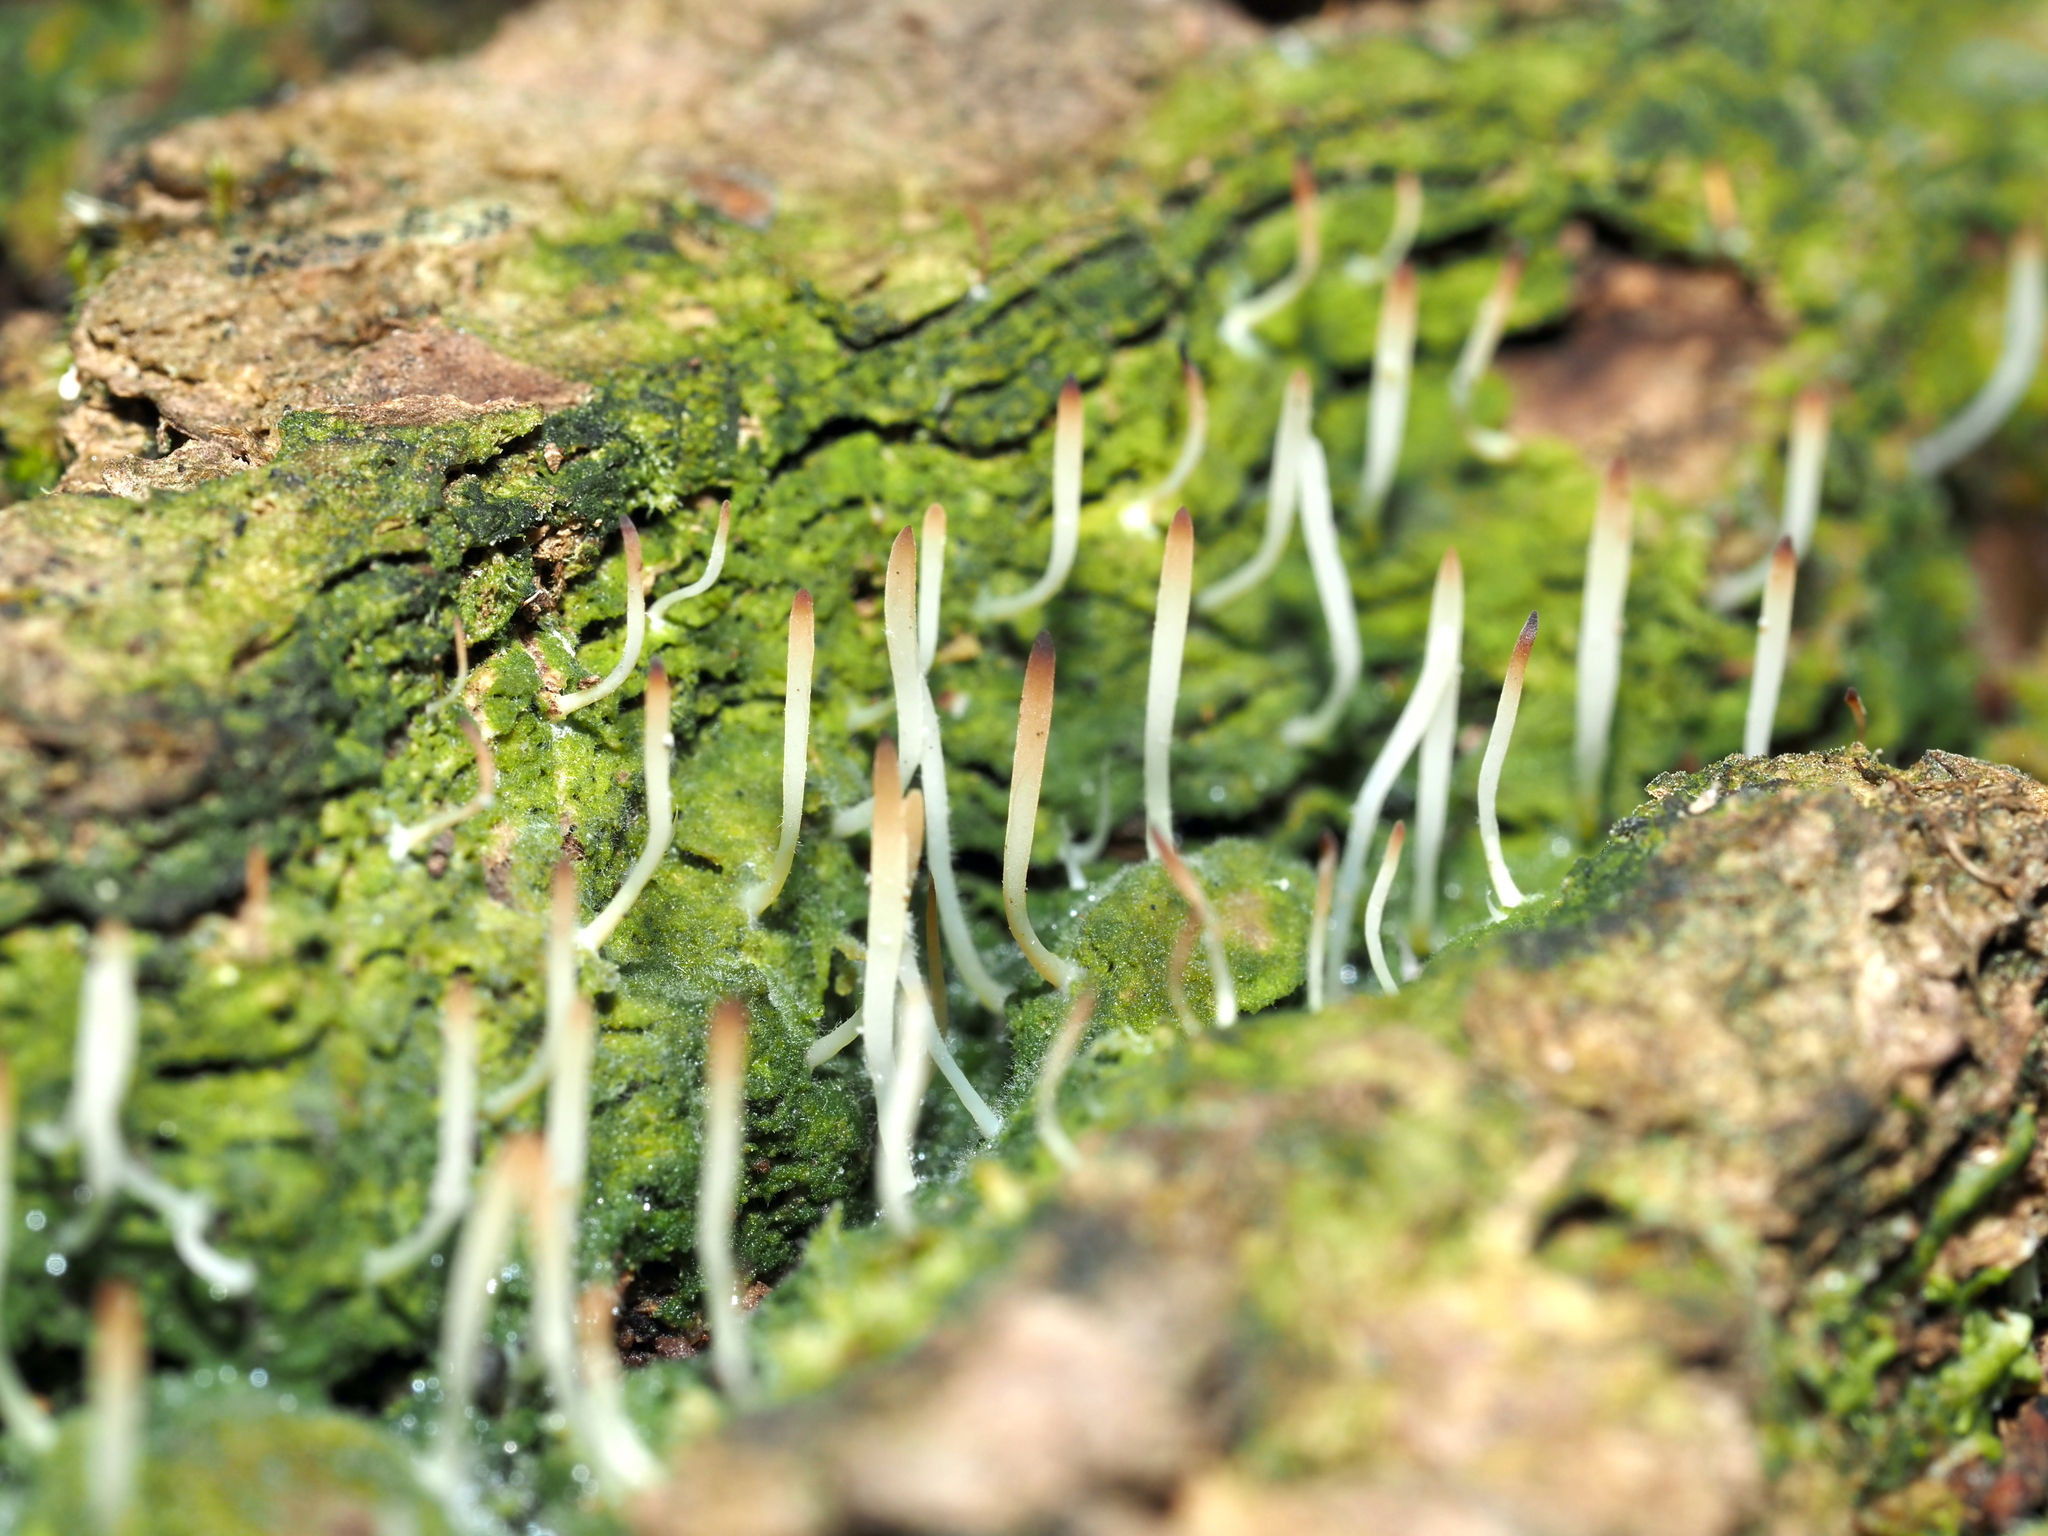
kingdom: Fungi
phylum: Basidiomycota
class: Agaricomycetes
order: Cantharellales
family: Hydnaceae
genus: Multiclavula
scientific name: Multiclavula mucida
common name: White green-algae coral
